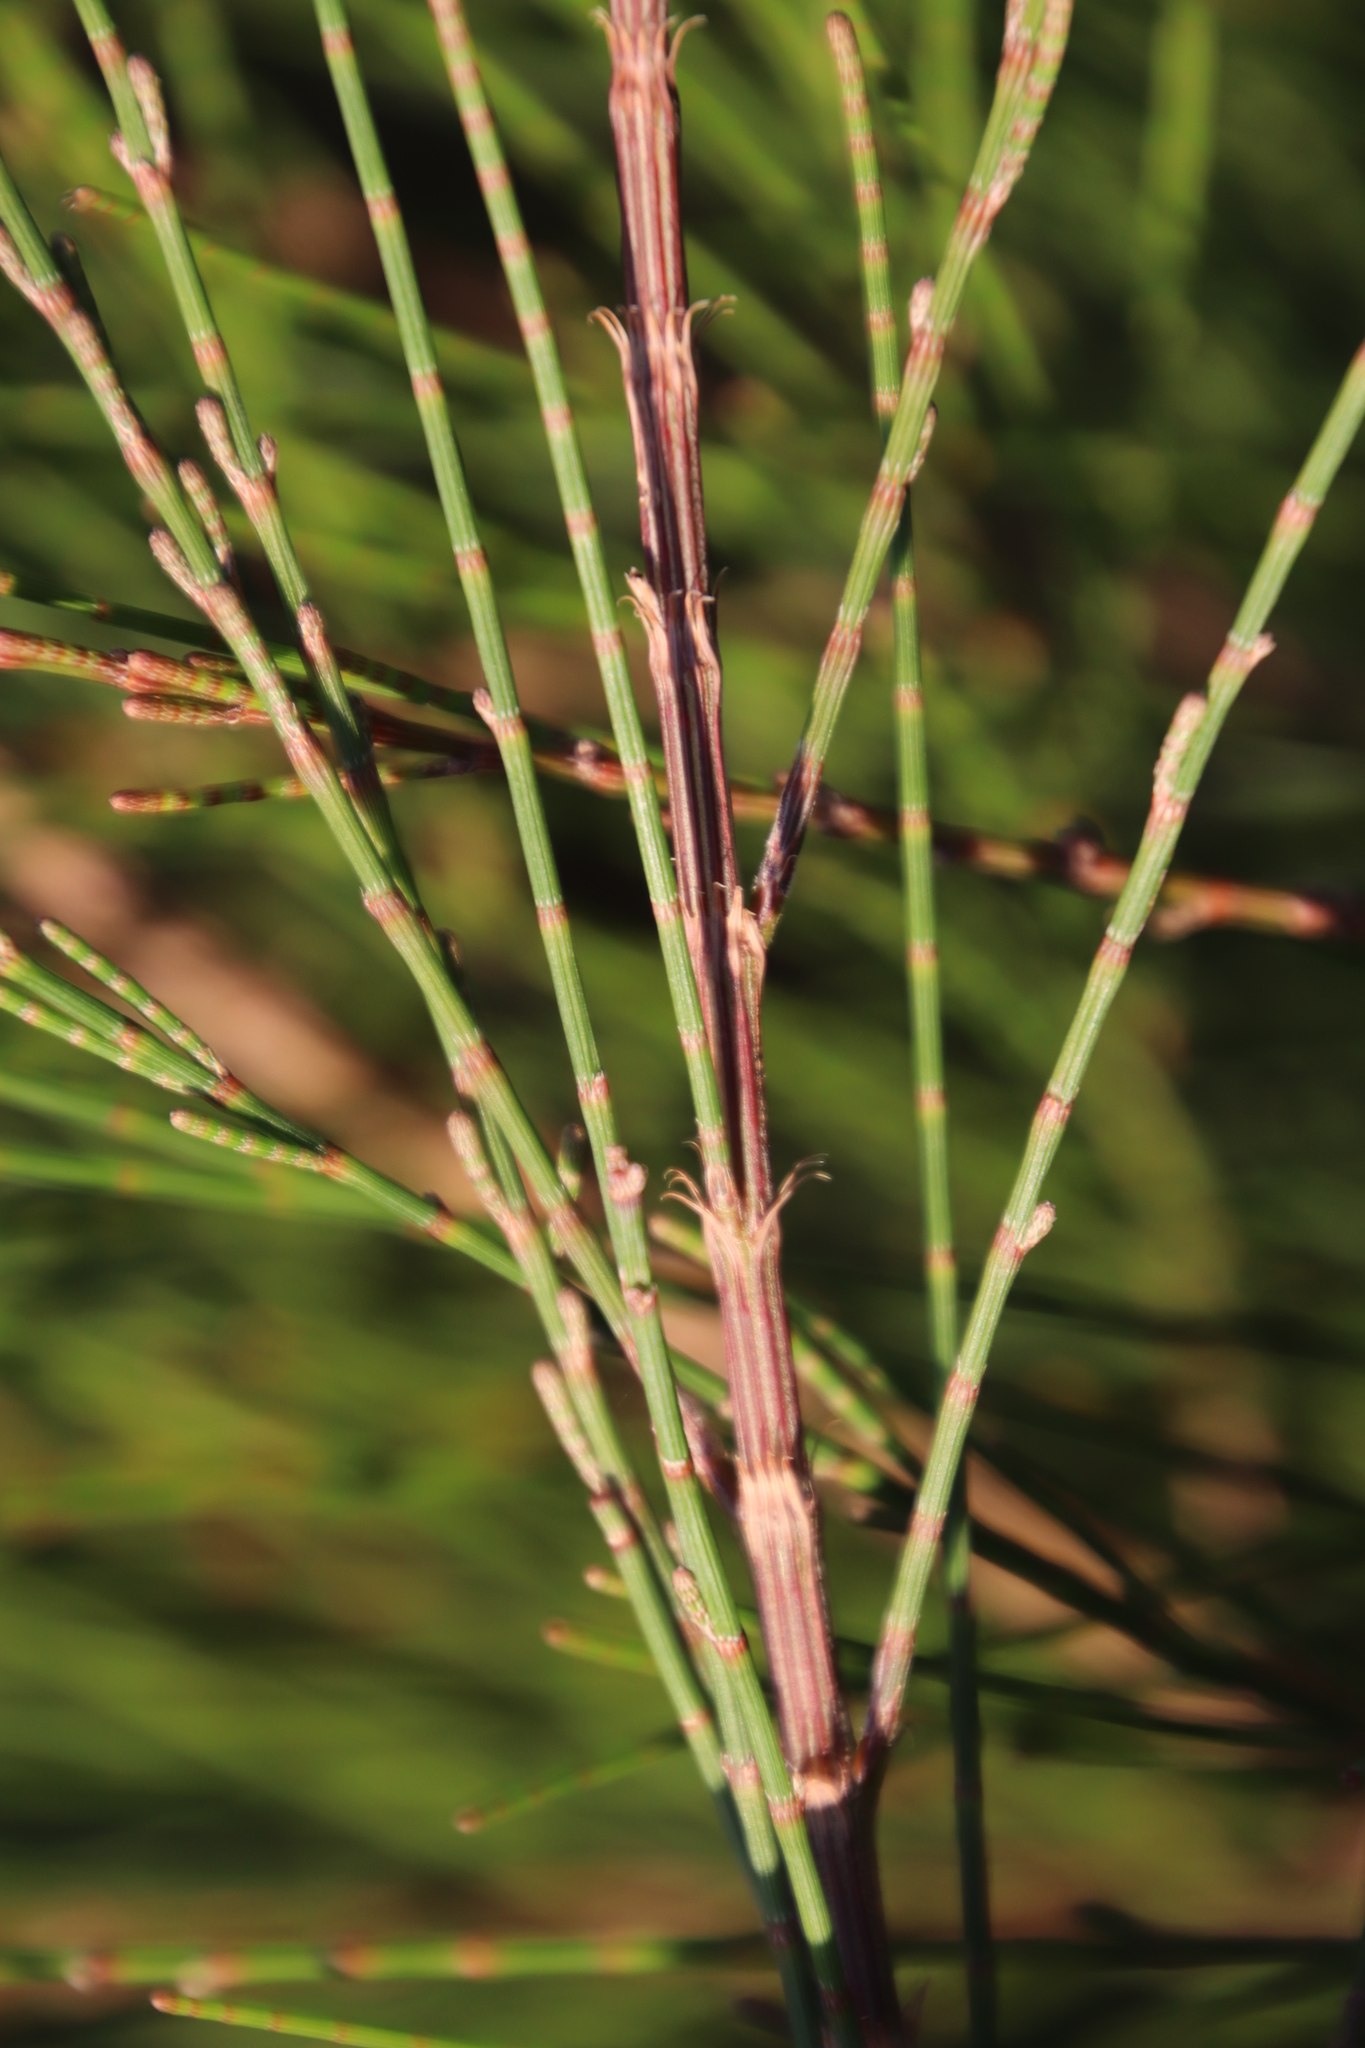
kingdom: Plantae
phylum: Tracheophyta
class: Magnoliopsida
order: Fagales
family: Casuarinaceae
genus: Casuarina
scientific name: Casuarina cunninghamiana
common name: River sheoak
